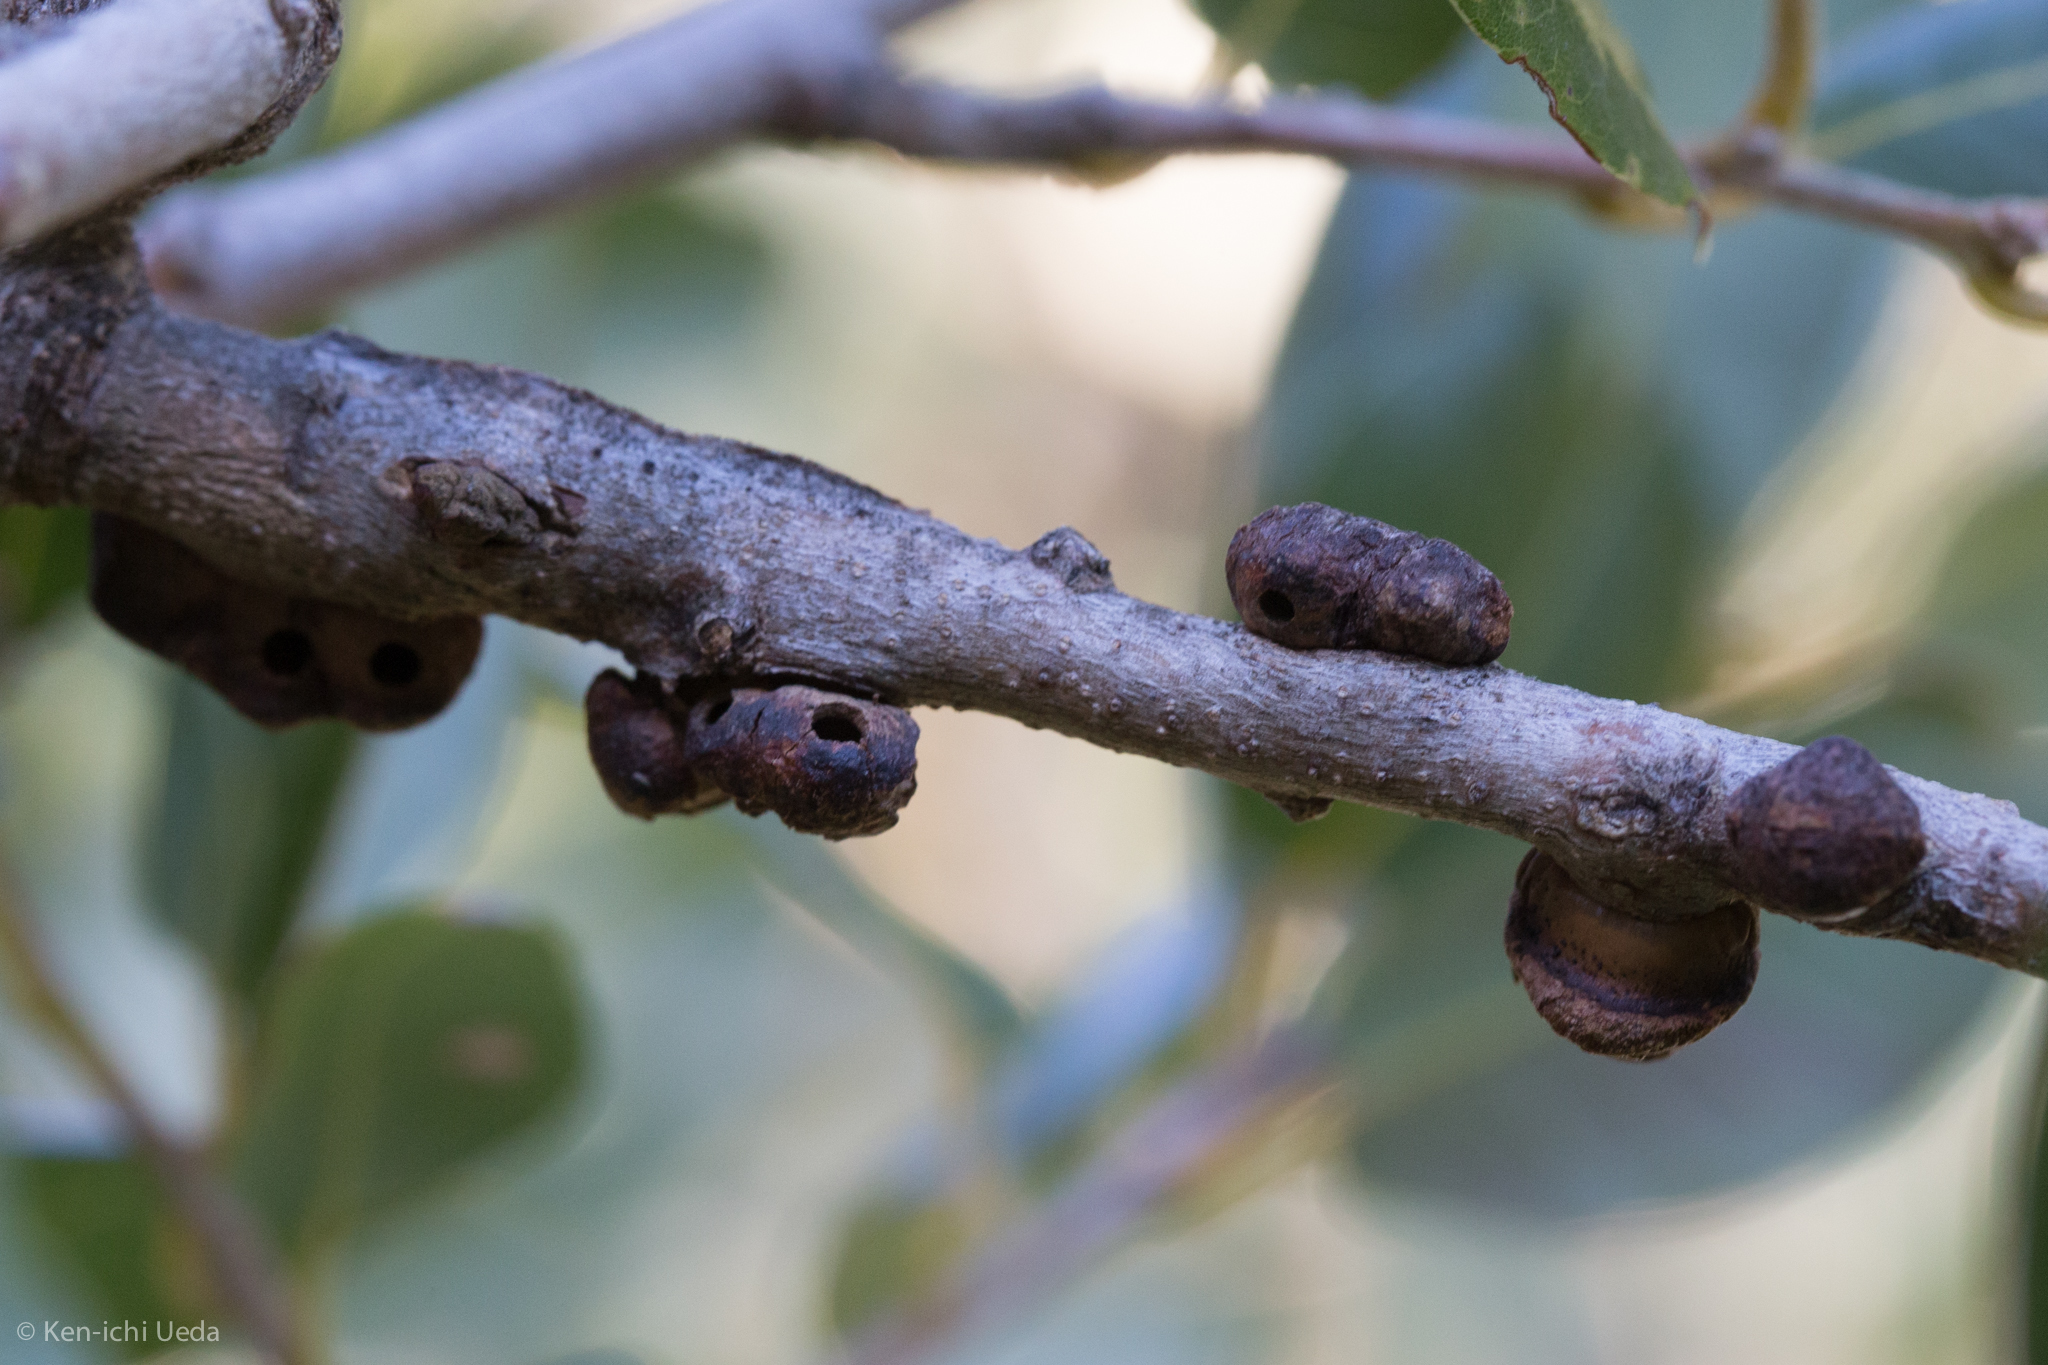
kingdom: Animalia
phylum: Arthropoda
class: Insecta
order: Hymenoptera
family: Cynipidae
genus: Disholandricus
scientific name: Disholandricus
